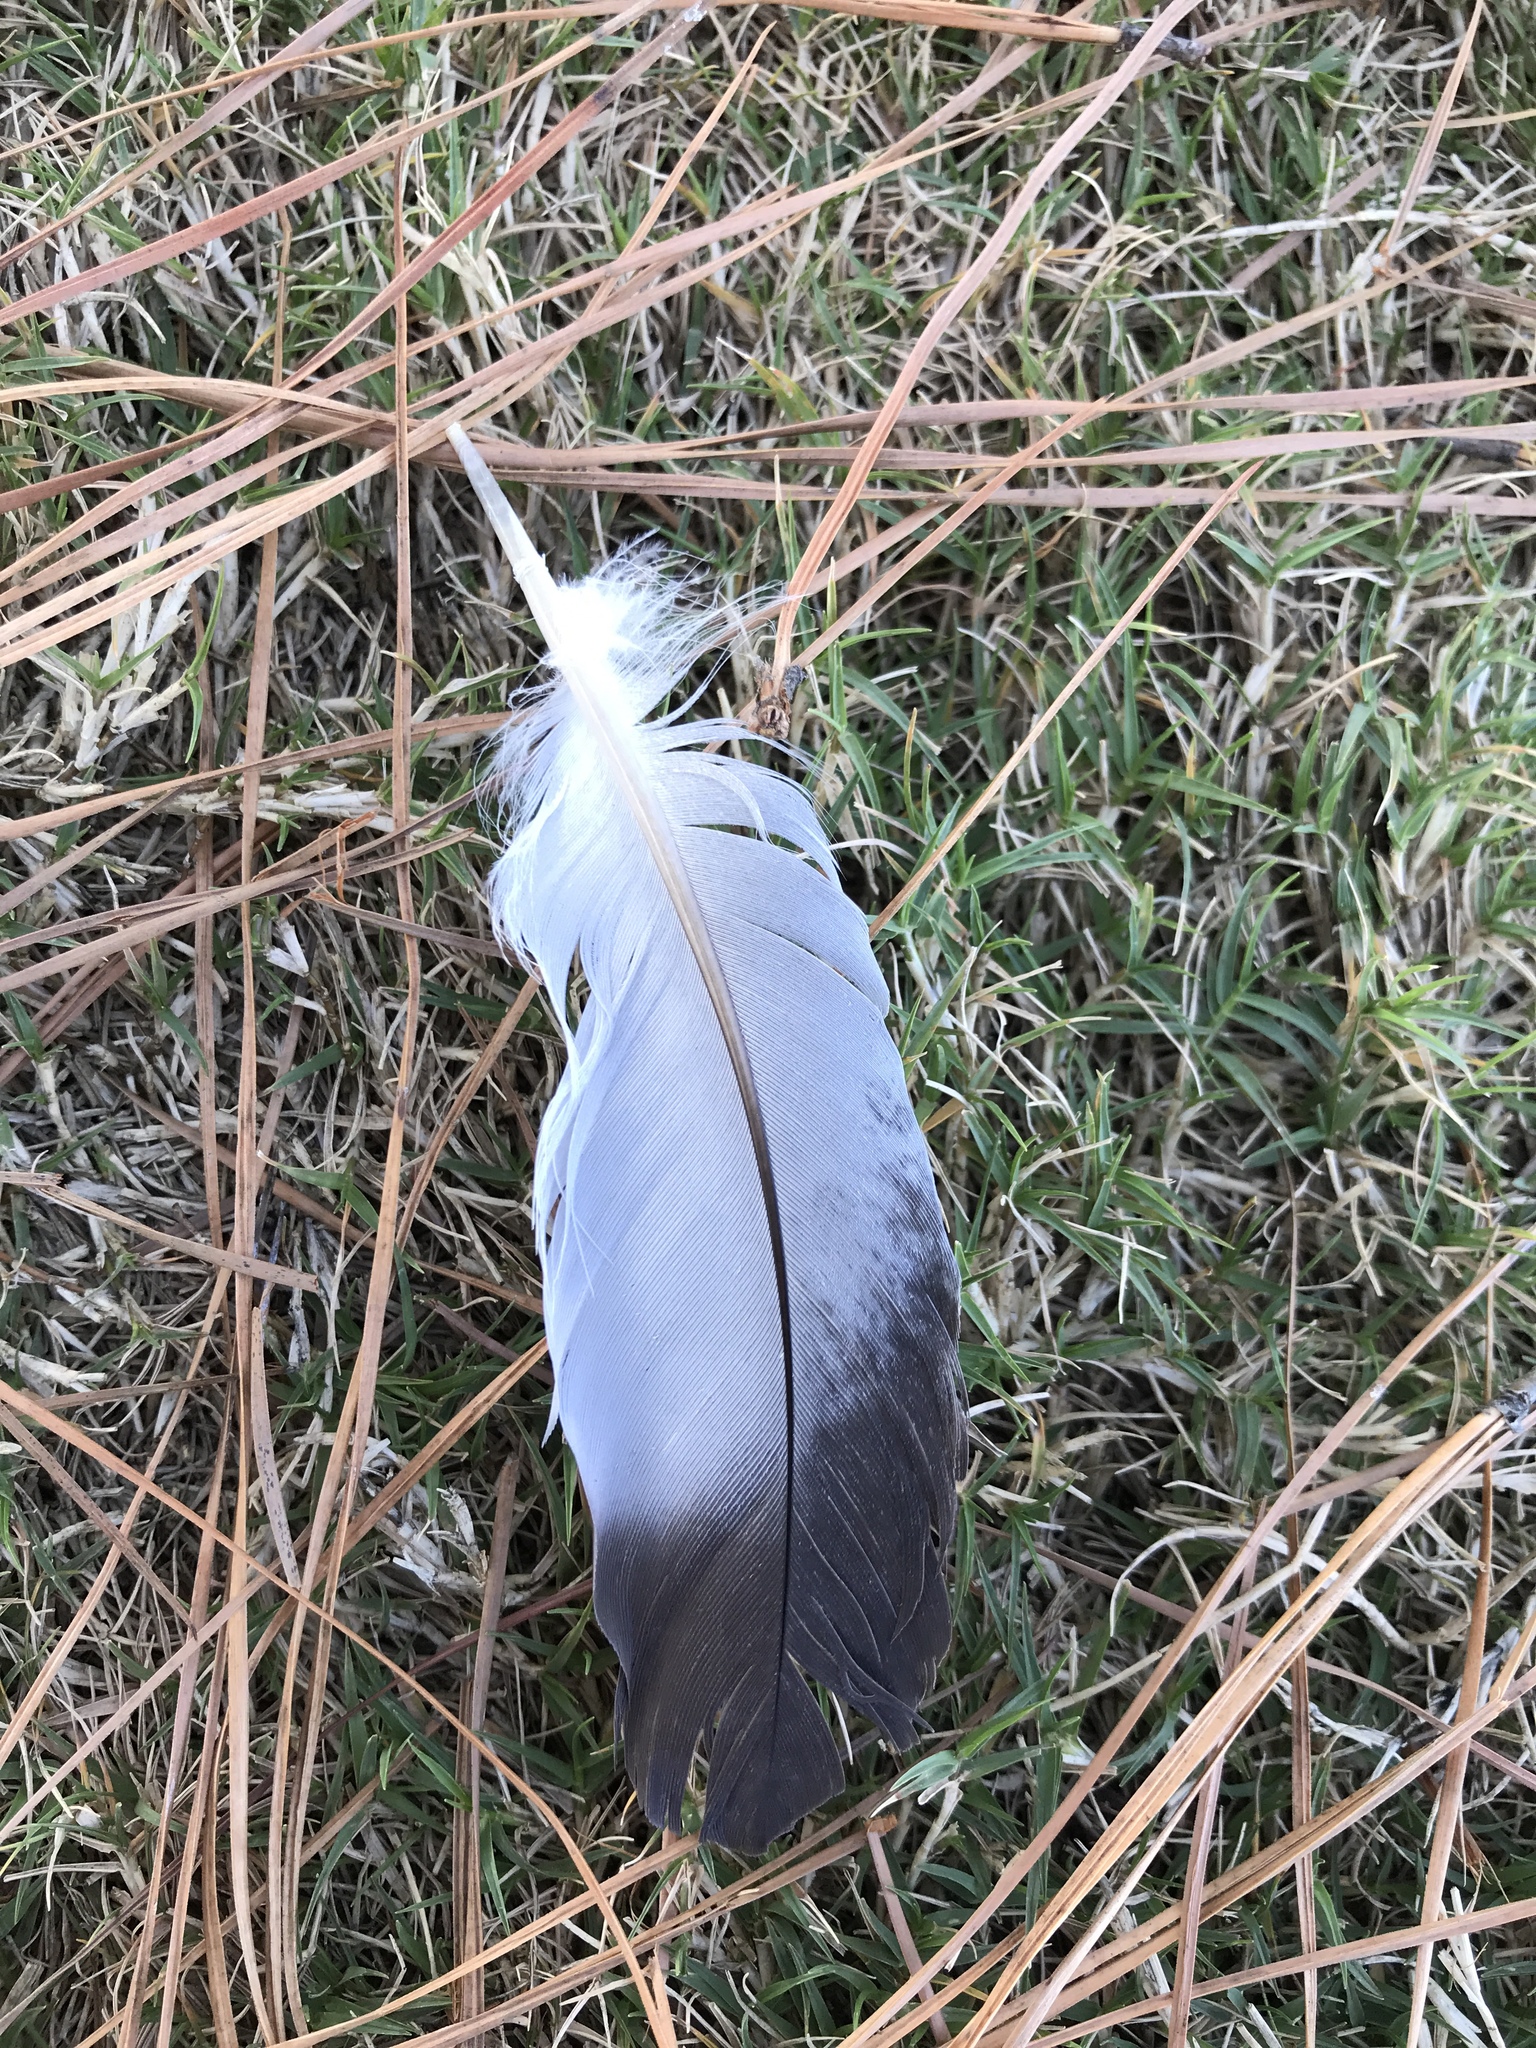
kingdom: Animalia
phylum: Chordata
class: Aves
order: Columbiformes
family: Columbidae
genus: Columba
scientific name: Columba livia
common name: Rock pigeon
